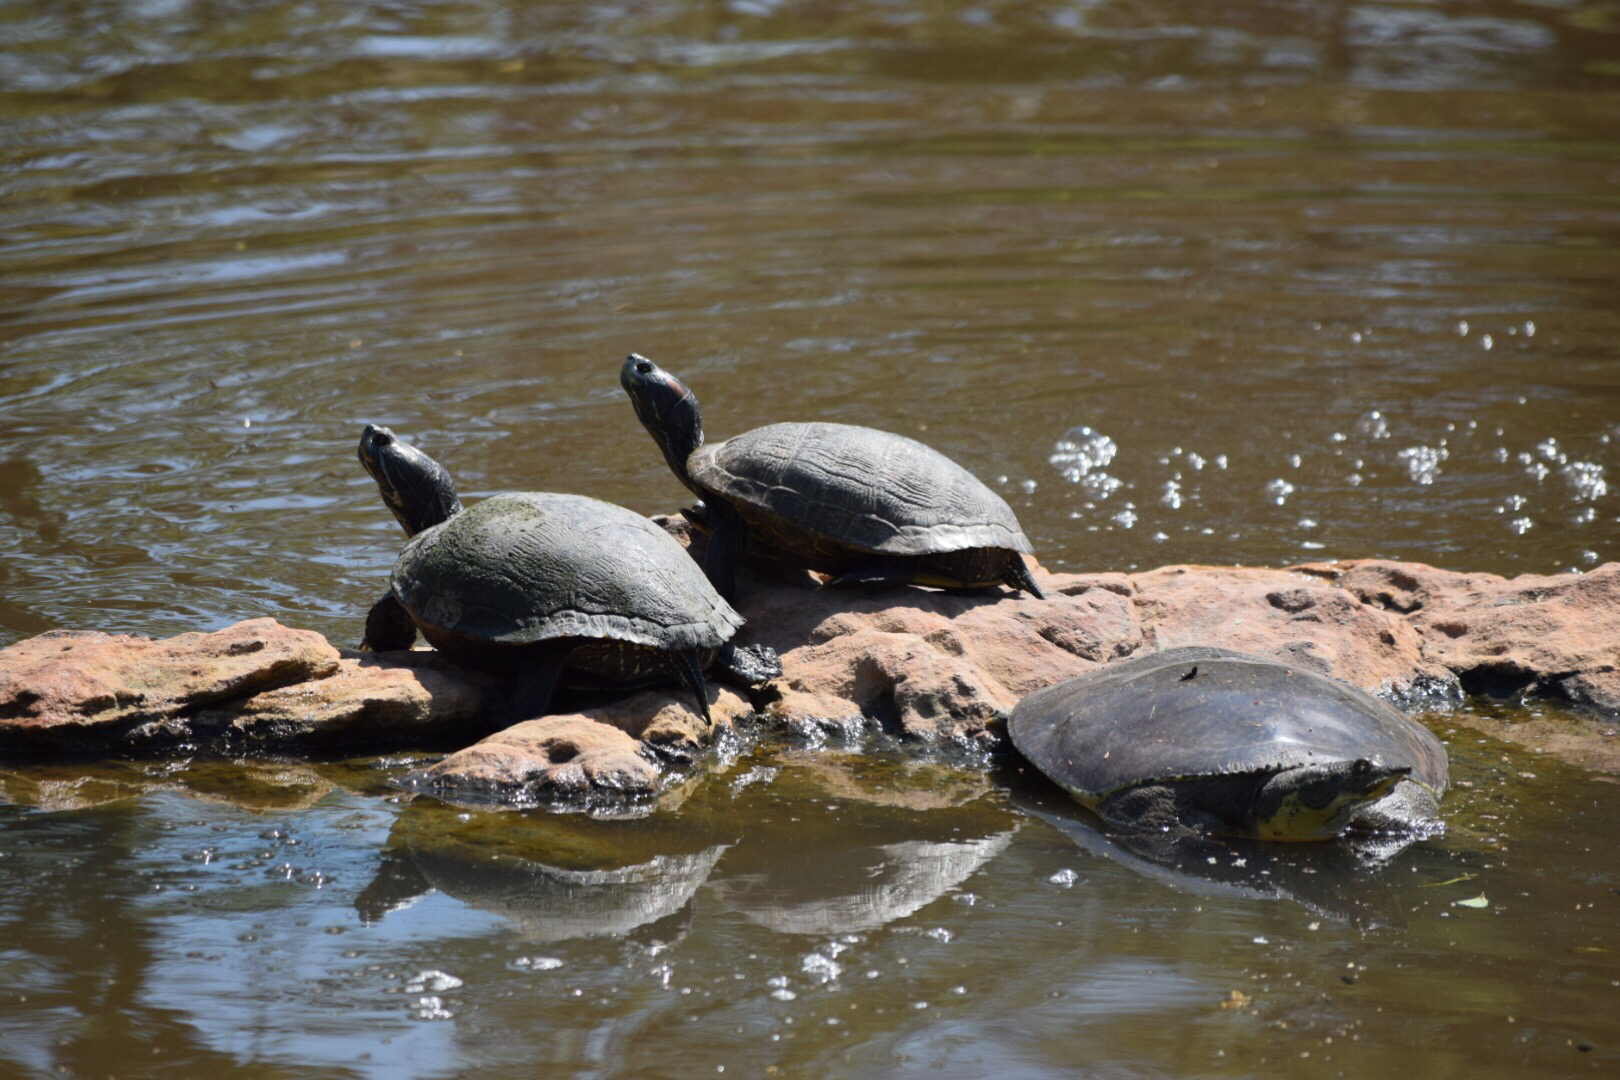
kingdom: Animalia
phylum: Chordata
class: Testudines
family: Emydidae
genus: Trachemys
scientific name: Trachemys scripta
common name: Slider
